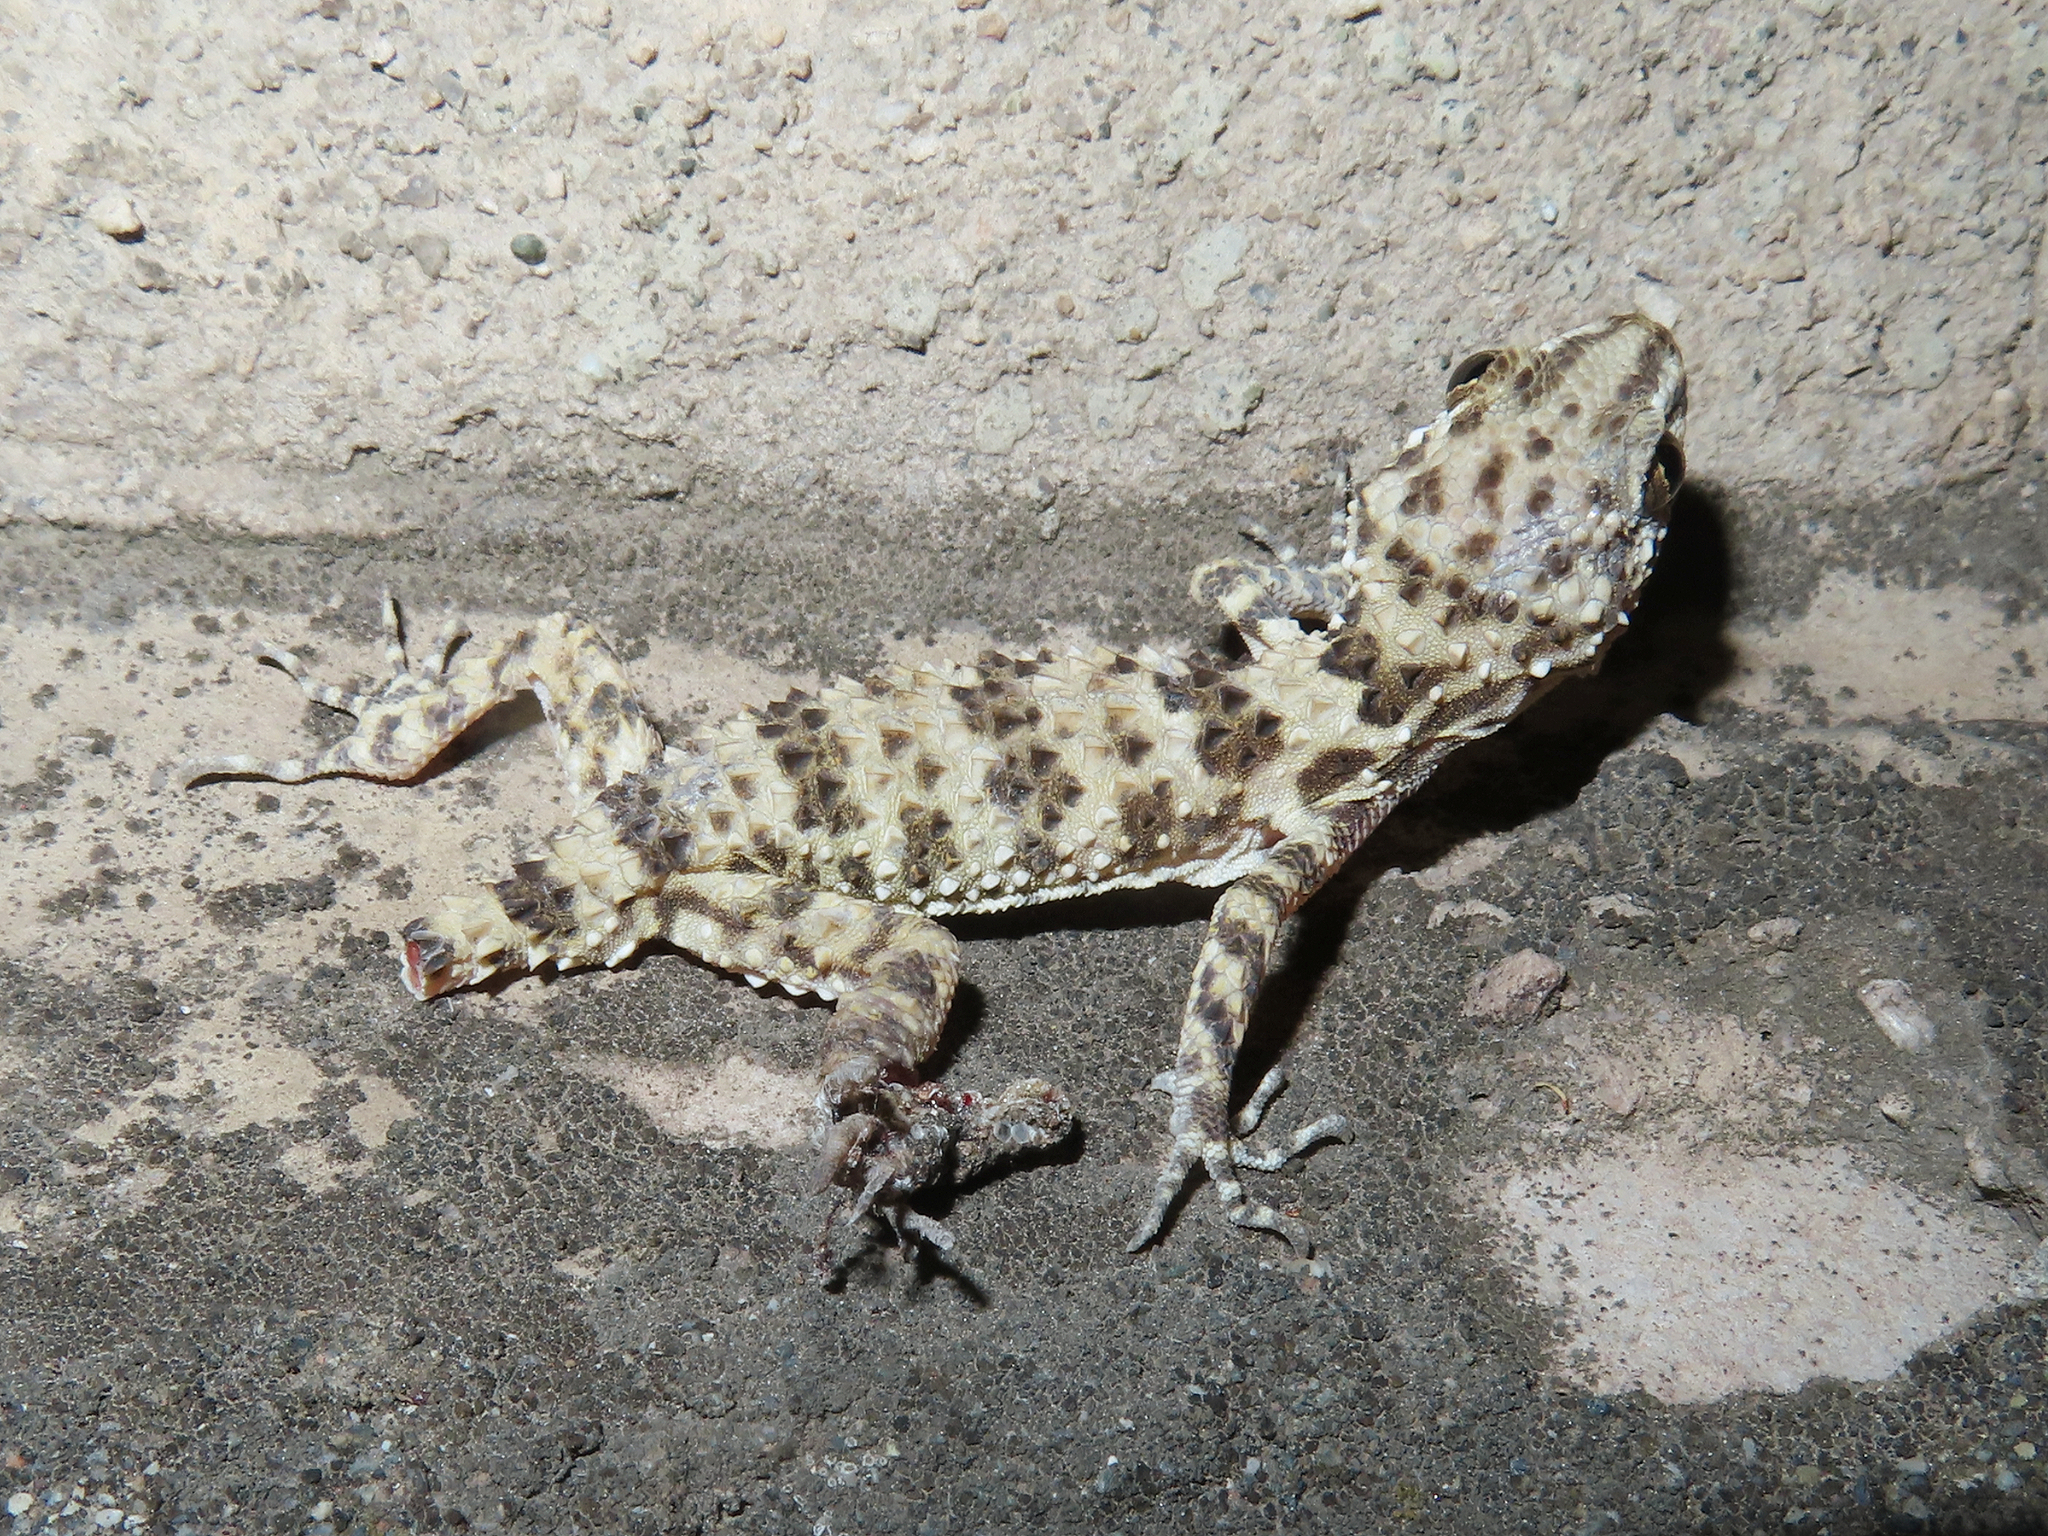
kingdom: Animalia
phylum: Chordata
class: Squamata
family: Gekkonidae
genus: Tenuidactylus
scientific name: Tenuidactylus caspius
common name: Caspian bent-toed gecko
